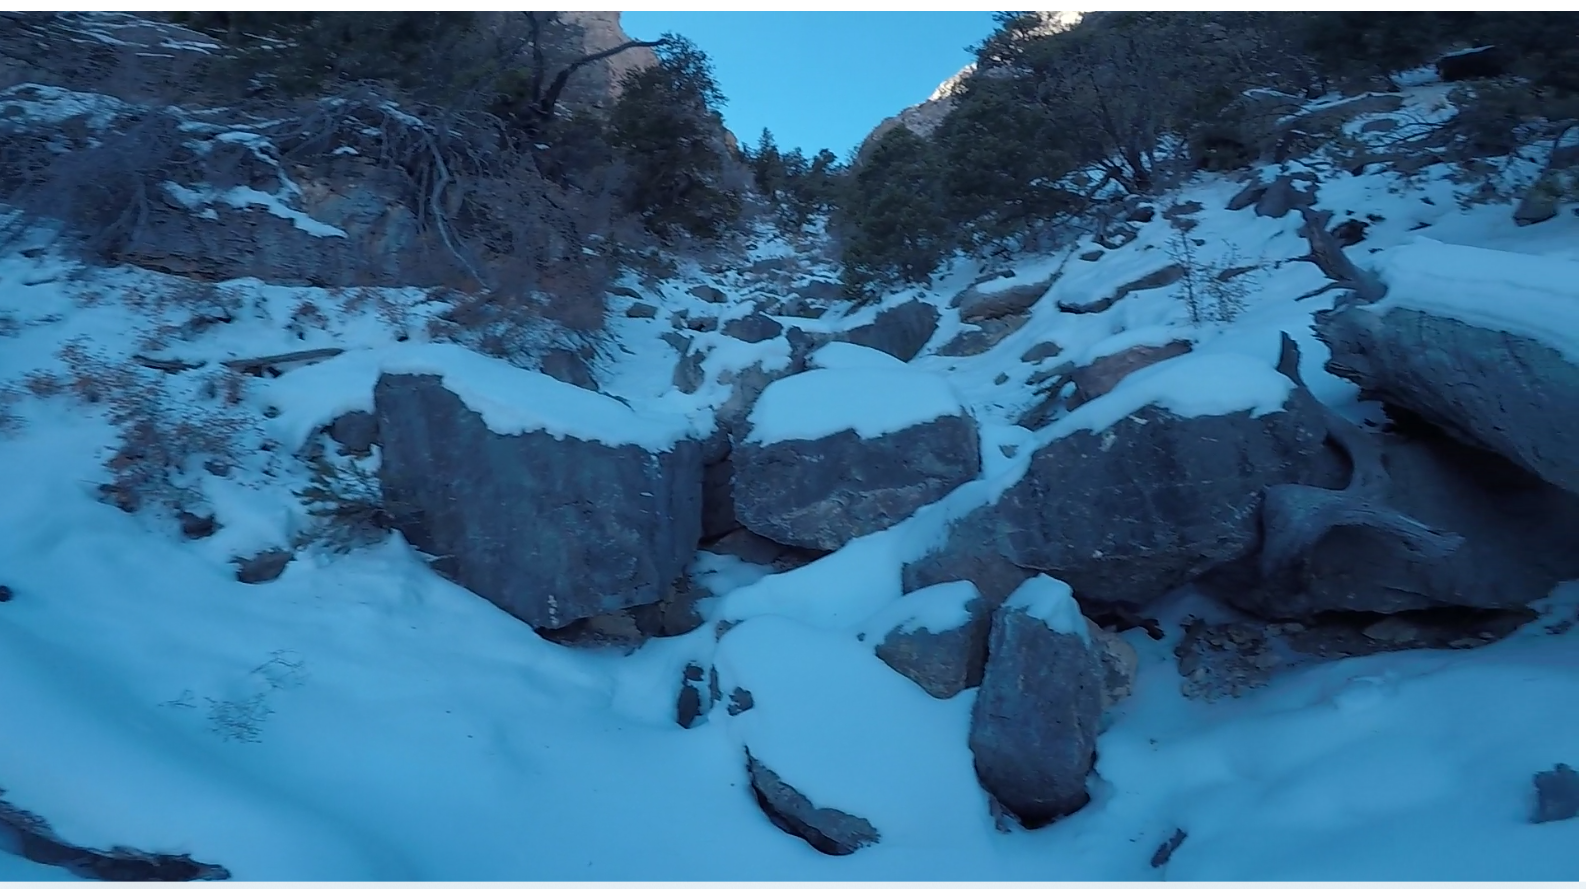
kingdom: Plantae
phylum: Tracheophyta
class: Pinopsida
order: Pinales
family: Pinaceae
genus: Pinus
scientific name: Pinus longaeva
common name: Intermountain bristlecone pine
